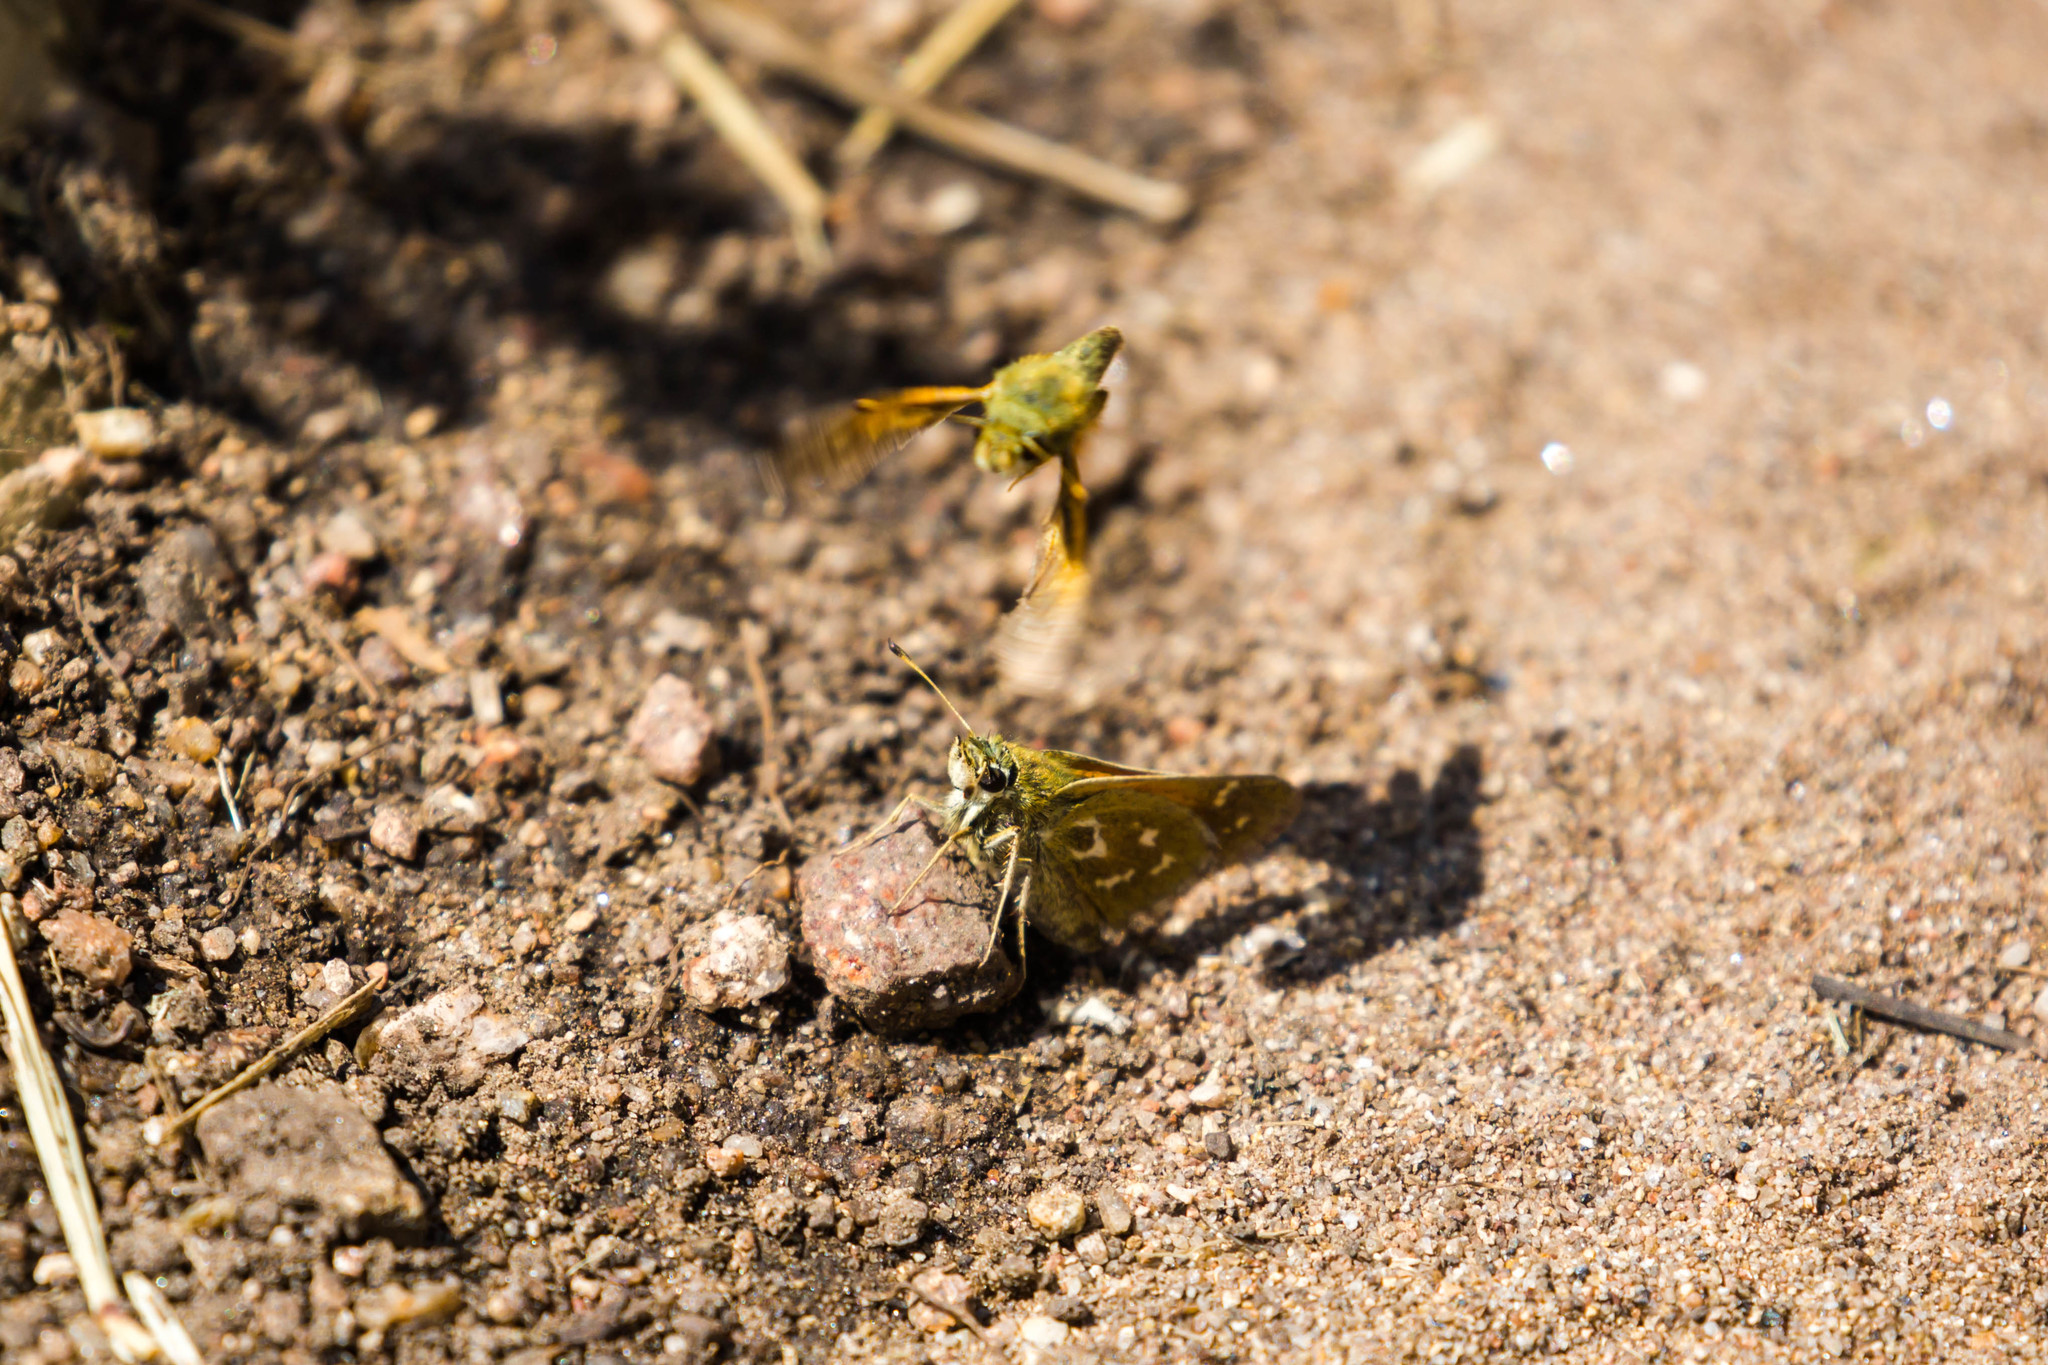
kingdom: Animalia
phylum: Arthropoda
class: Insecta
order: Lepidoptera
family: Hesperiidae
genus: Hesperia
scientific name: Hesperia comma
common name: Common branded skipper
